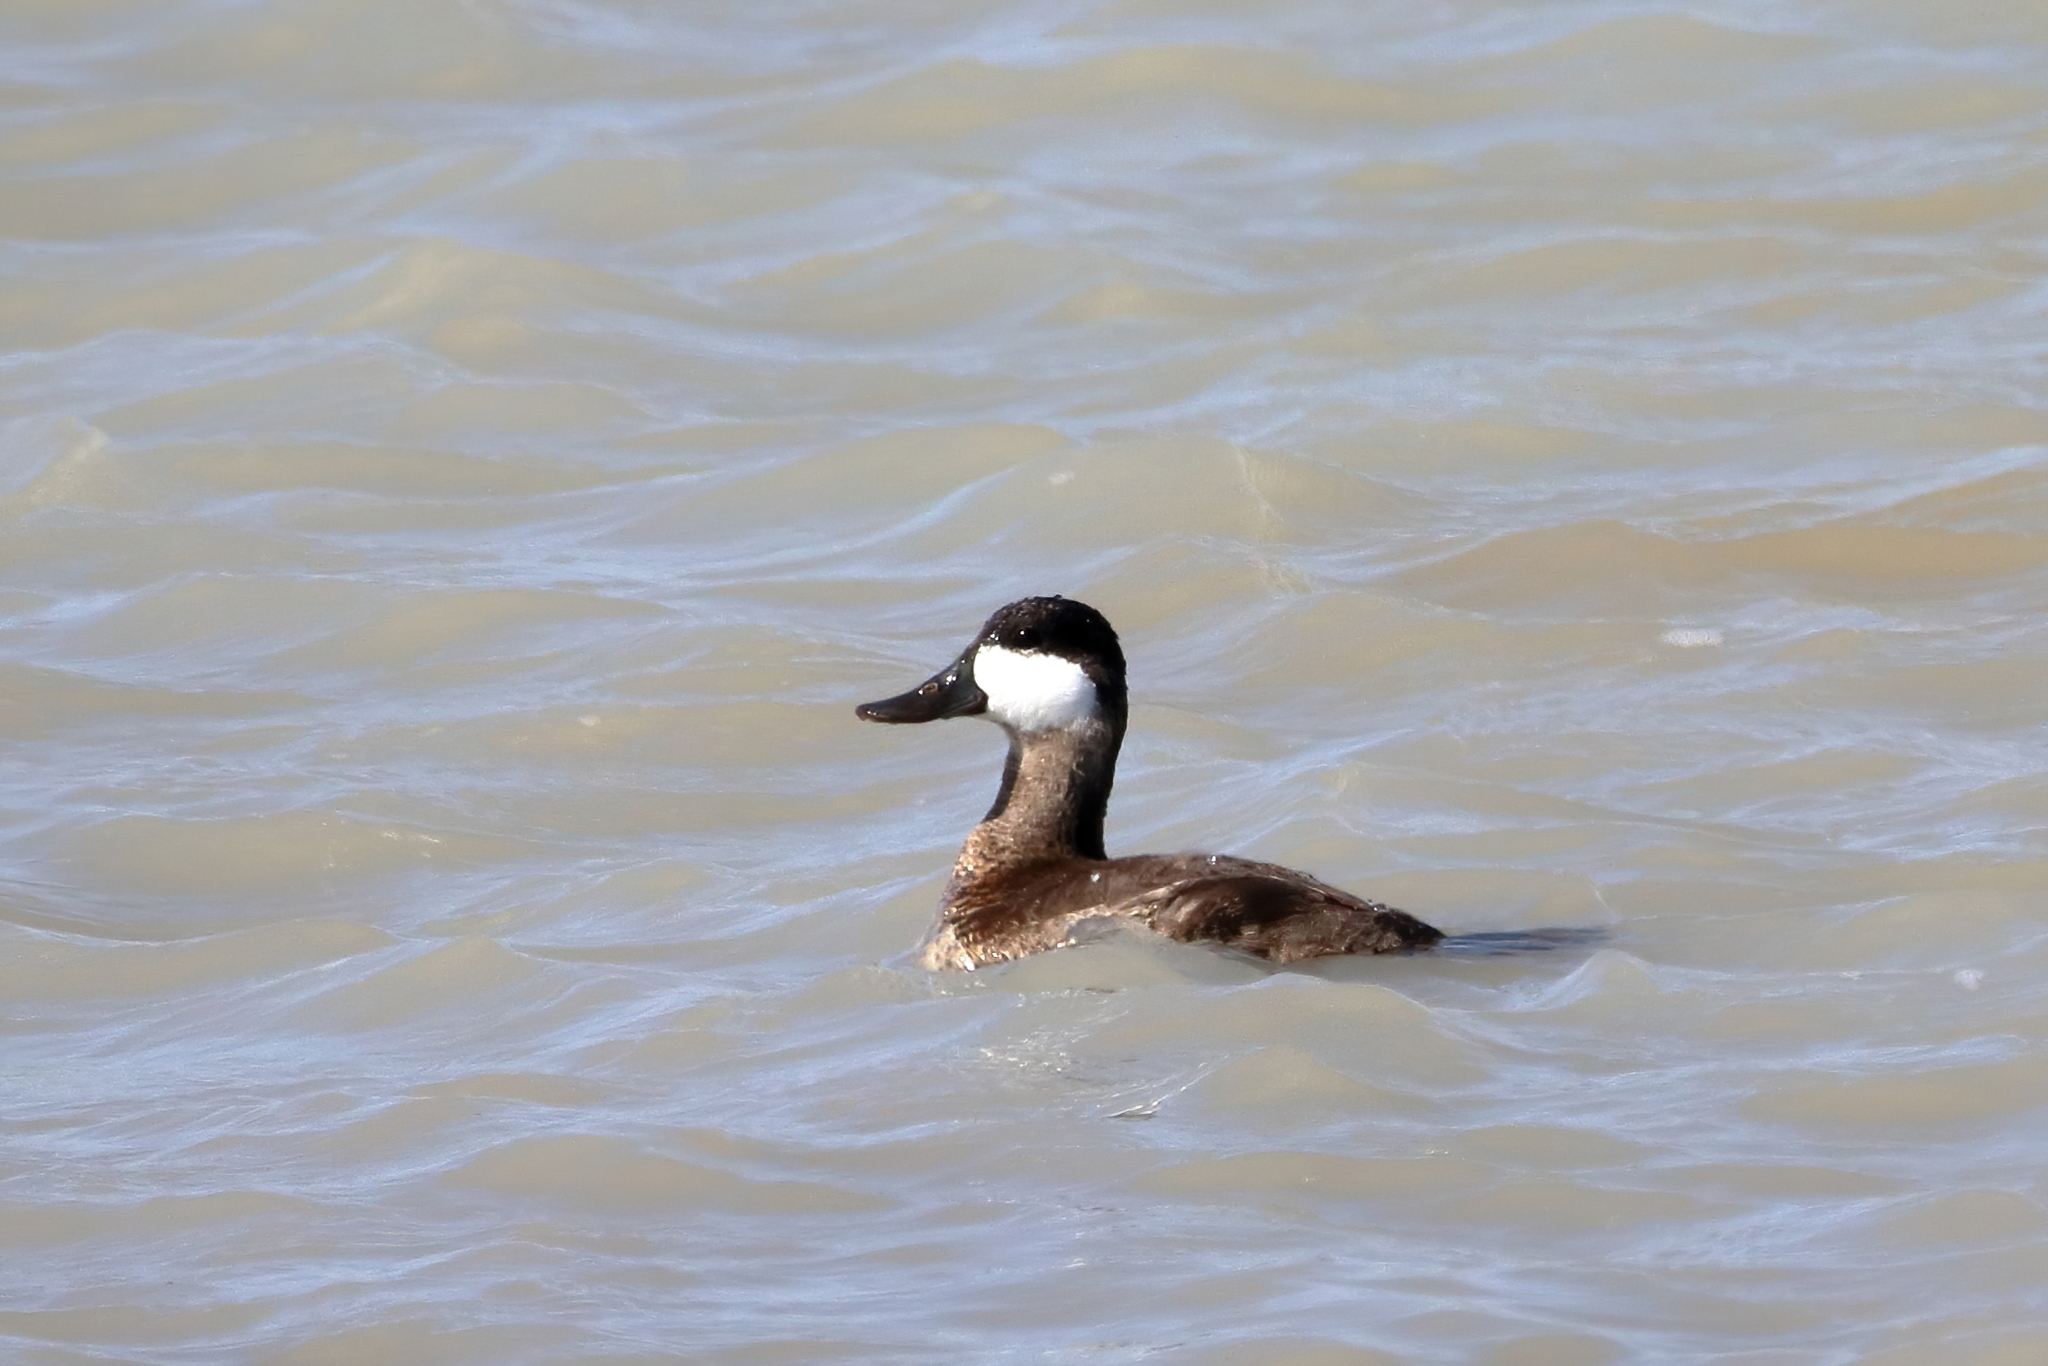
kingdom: Animalia
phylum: Chordata
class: Aves
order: Anseriformes
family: Anatidae
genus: Oxyura
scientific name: Oxyura jamaicensis
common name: Ruddy duck
